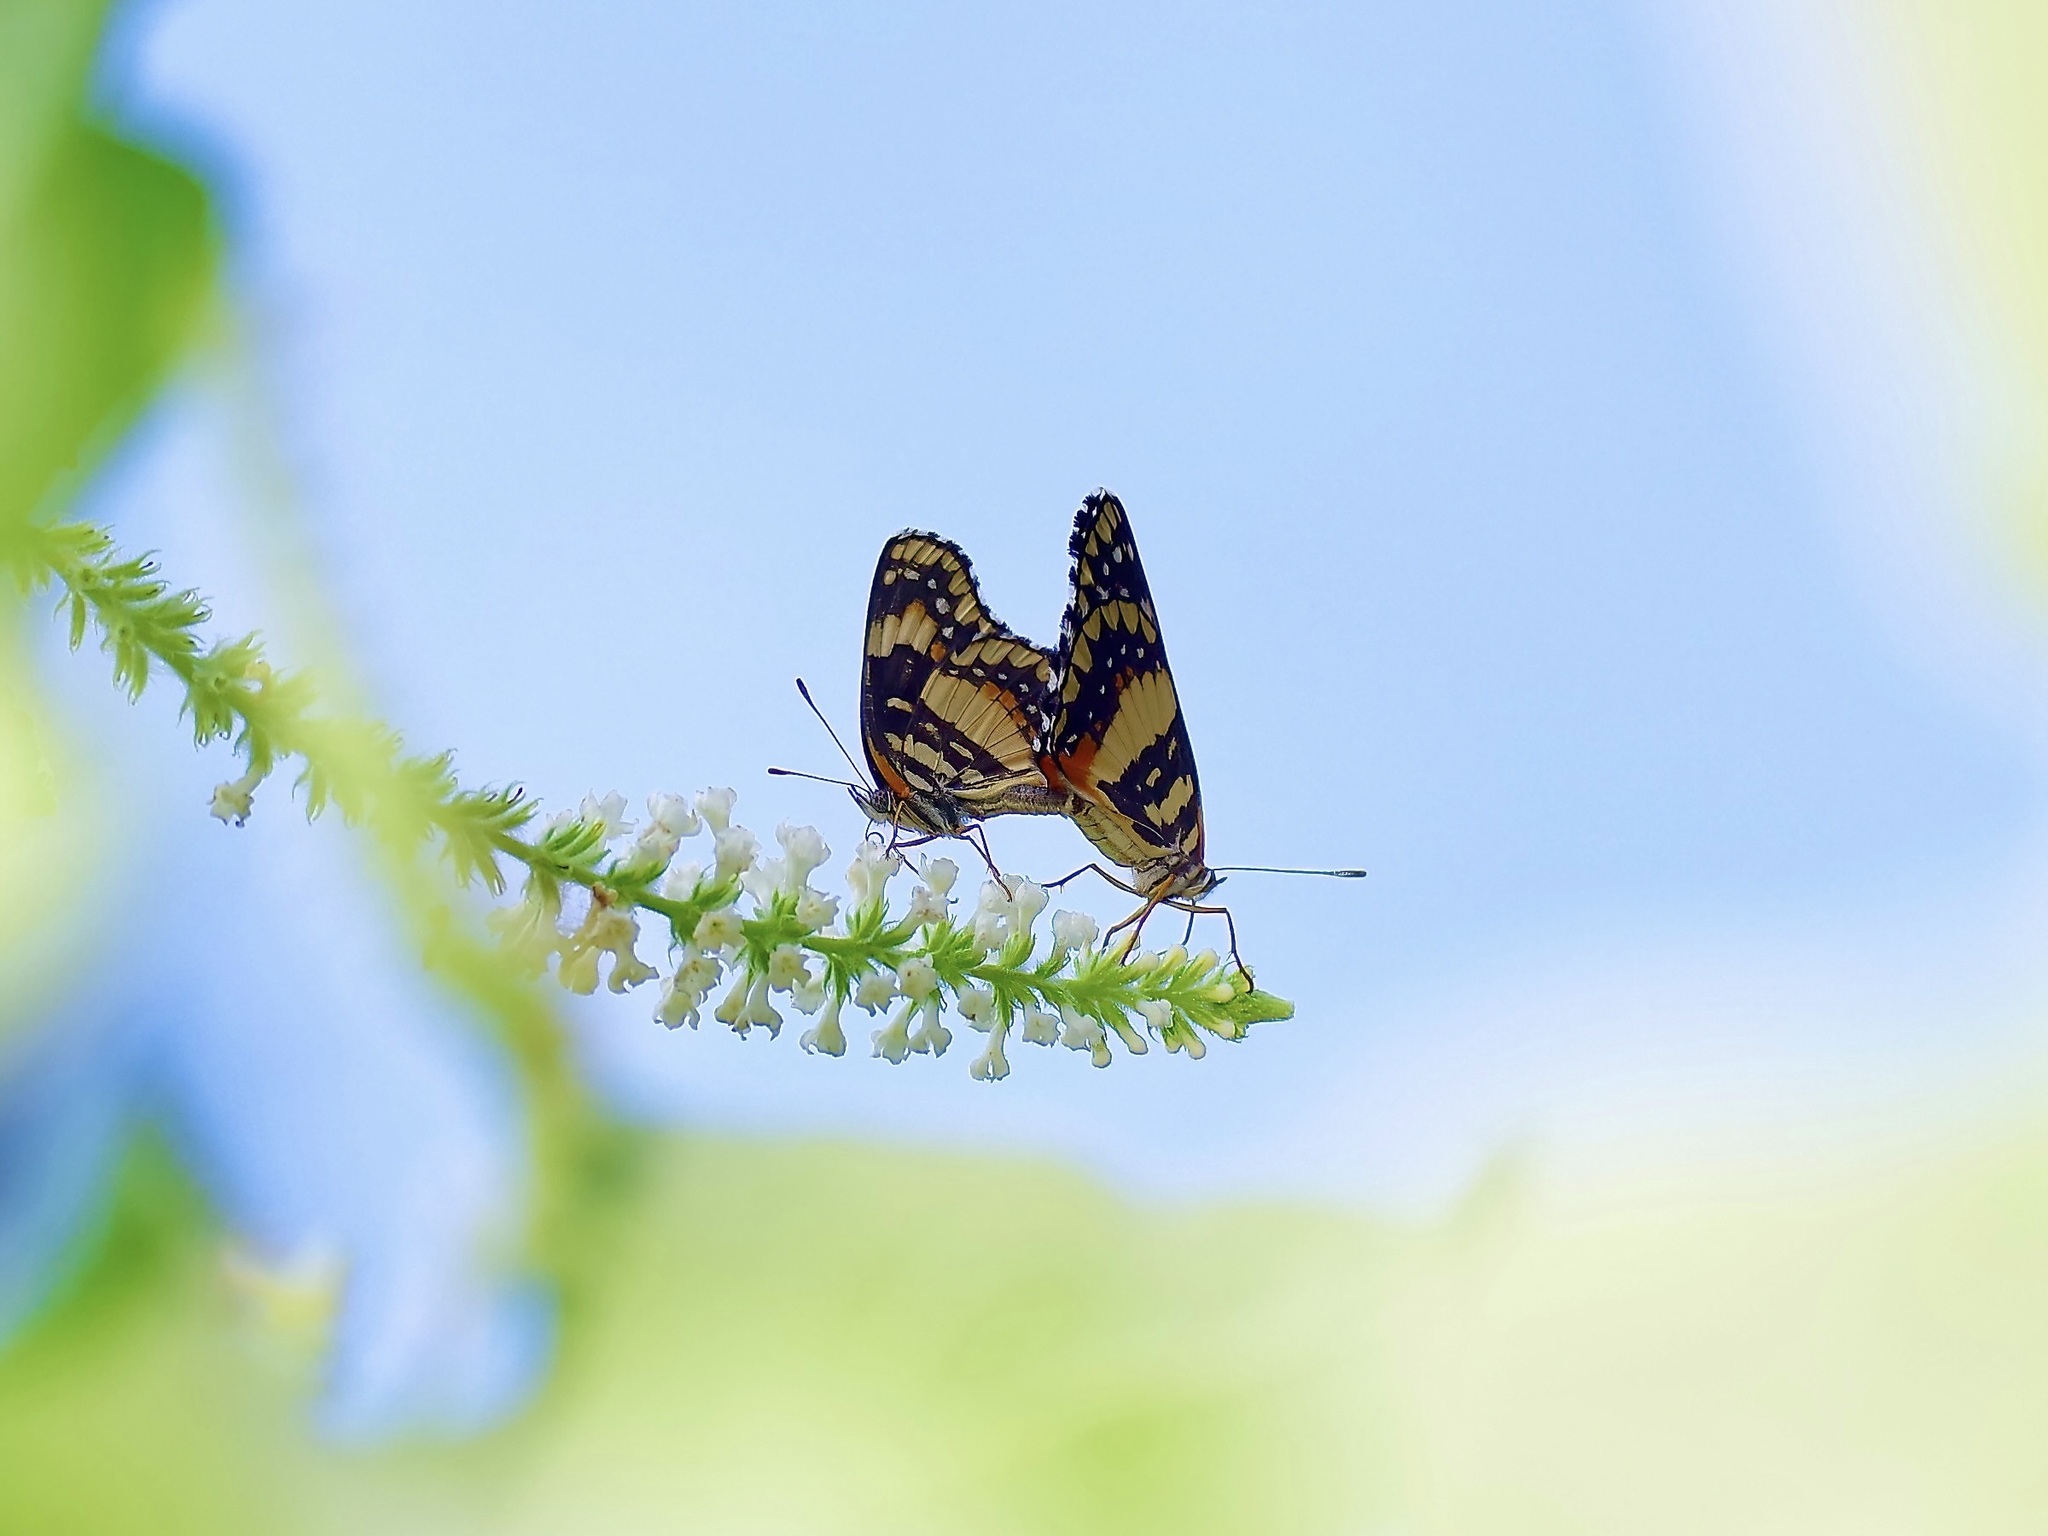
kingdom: Animalia
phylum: Arthropoda
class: Insecta
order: Lepidoptera
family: Nymphalidae
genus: Chlosyne
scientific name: Chlosyne lacinia
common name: Bordered patch
